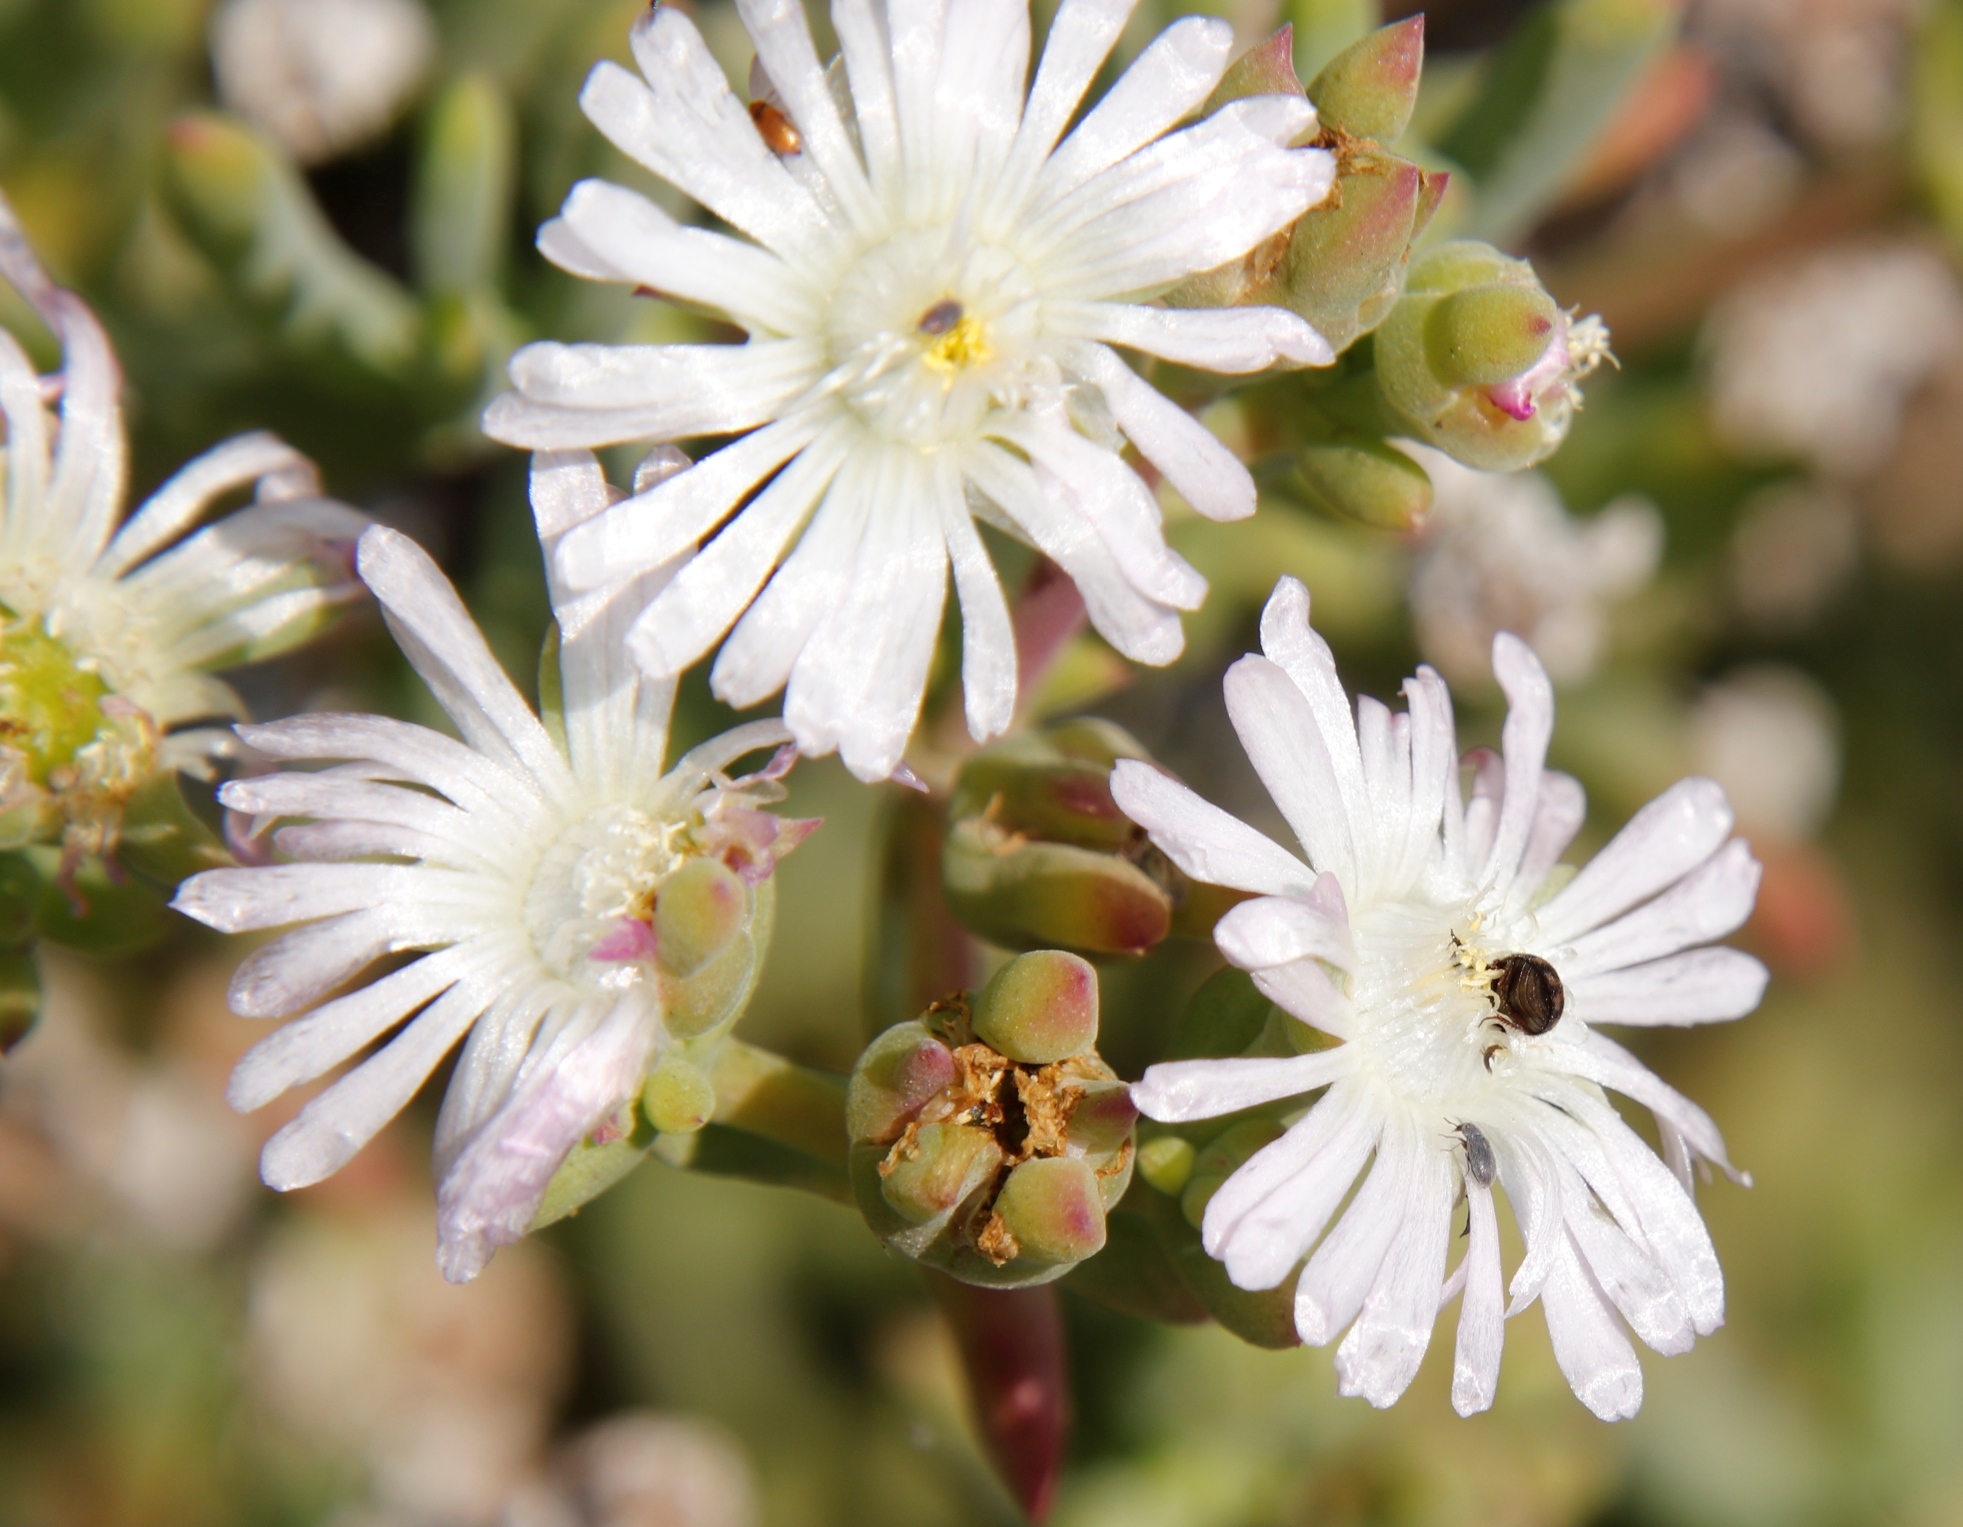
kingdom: Plantae
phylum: Tracheophyta
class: Magnoliopsida
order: Caryophyllales
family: Aizoaceae
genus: Delosperma
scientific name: Delosperma subincanum
